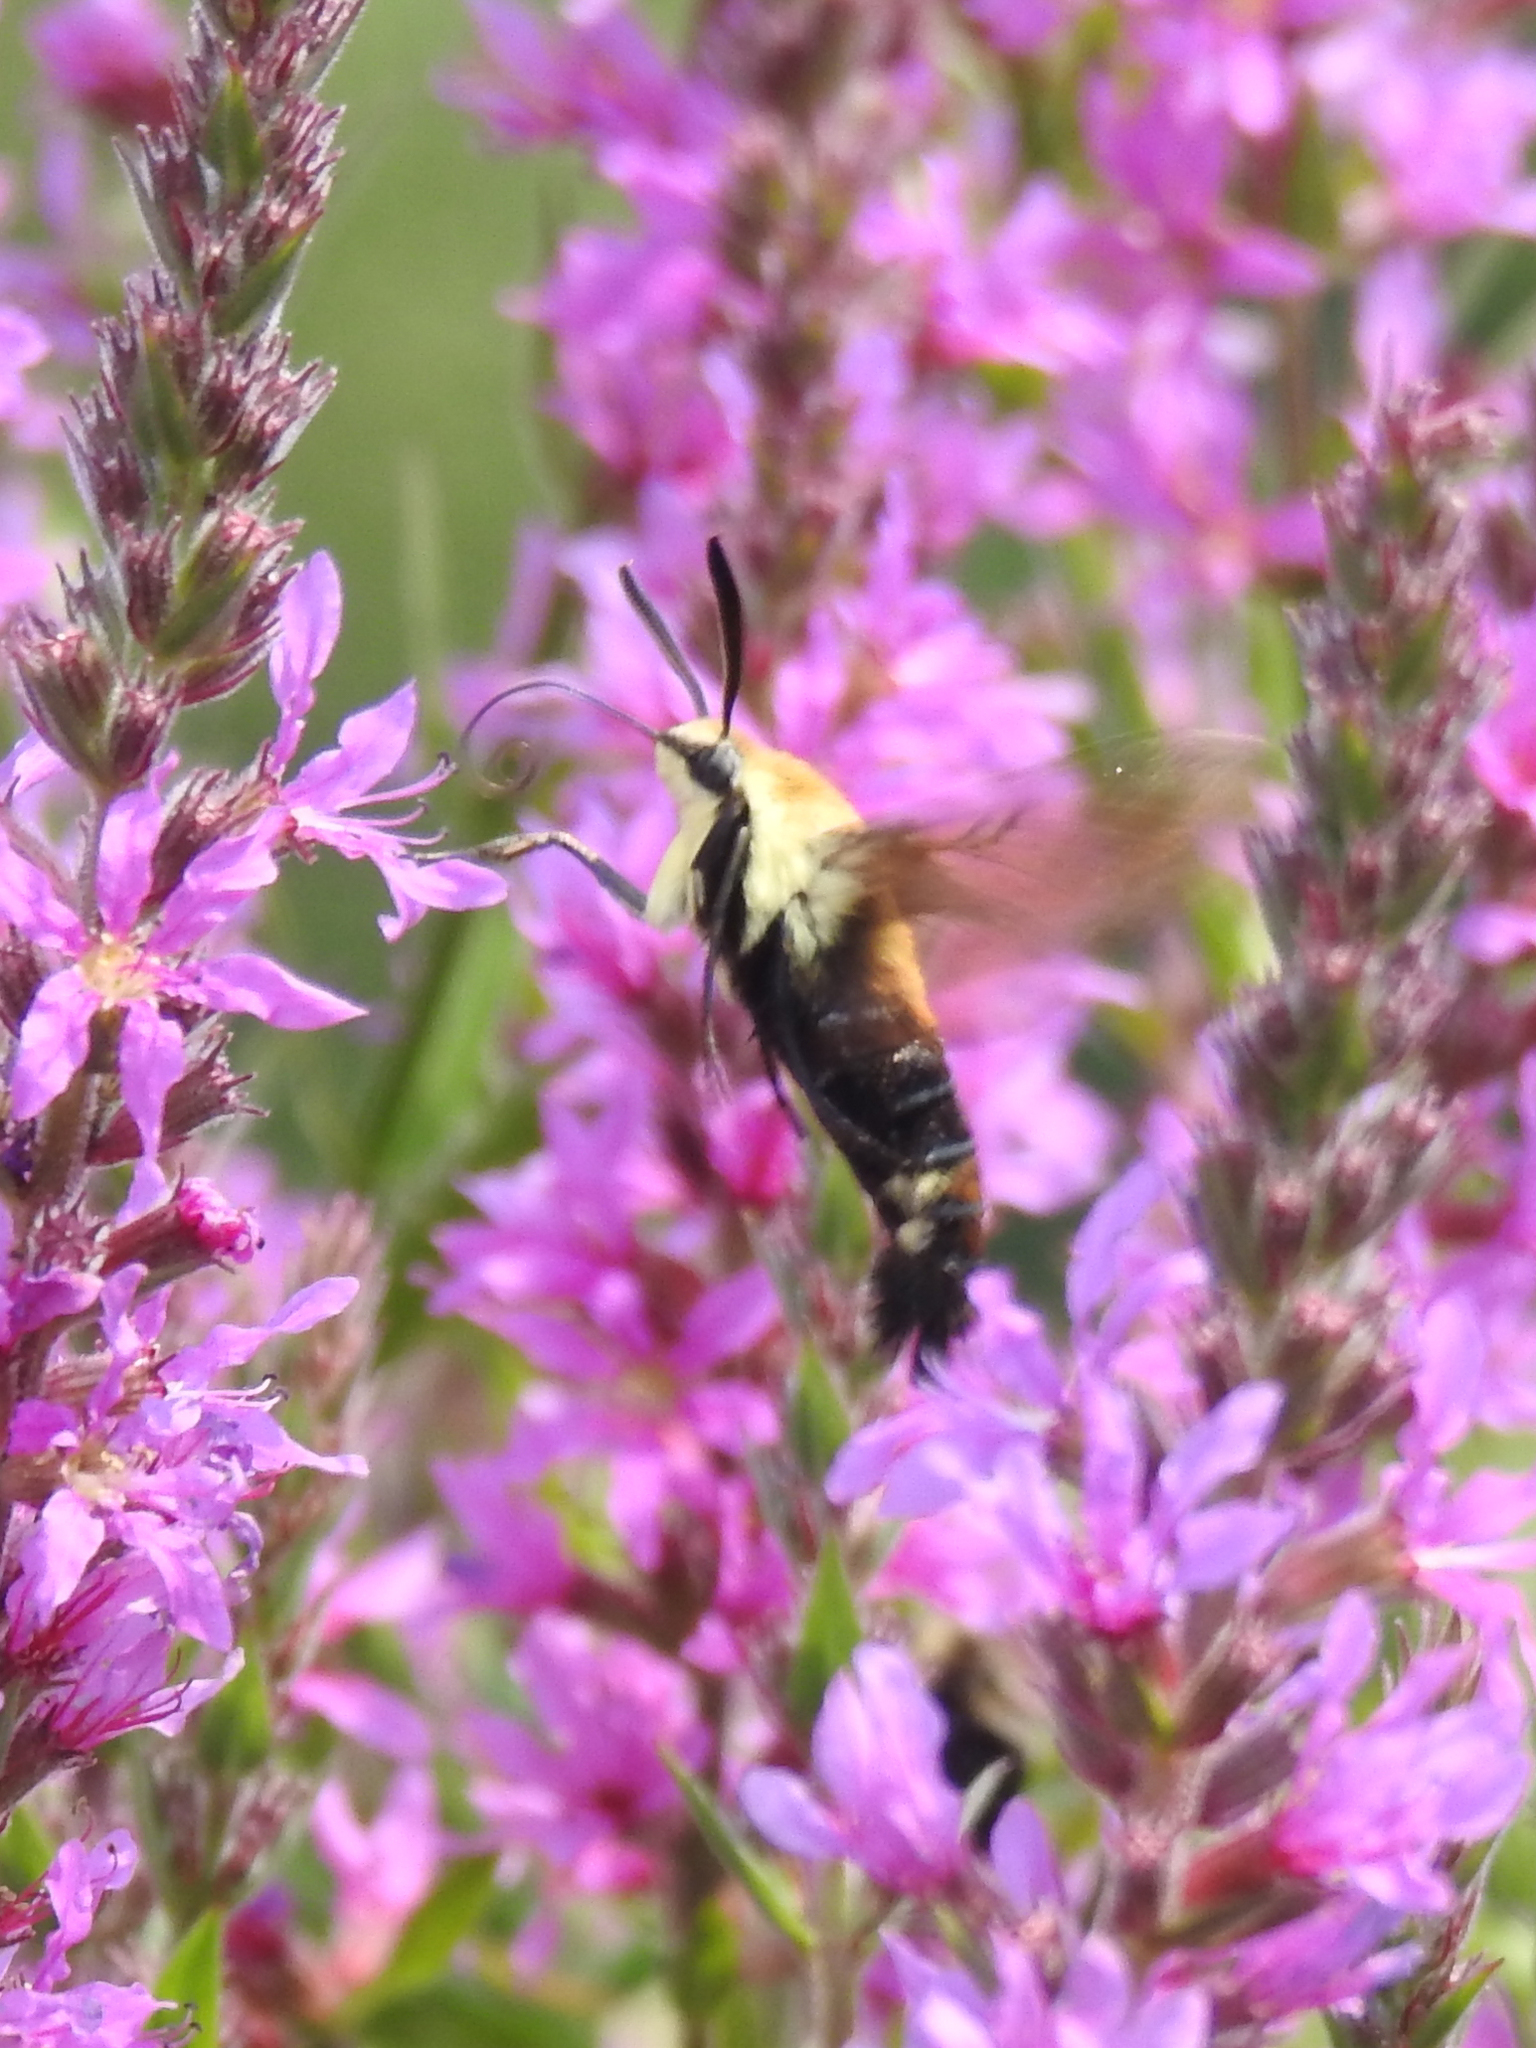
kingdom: Animalia
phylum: Arthropoda
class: Insecta
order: Lepidoptera
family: Sphingidae
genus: Hemaris
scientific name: Hemaris diffinis
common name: Bumblebee moth
